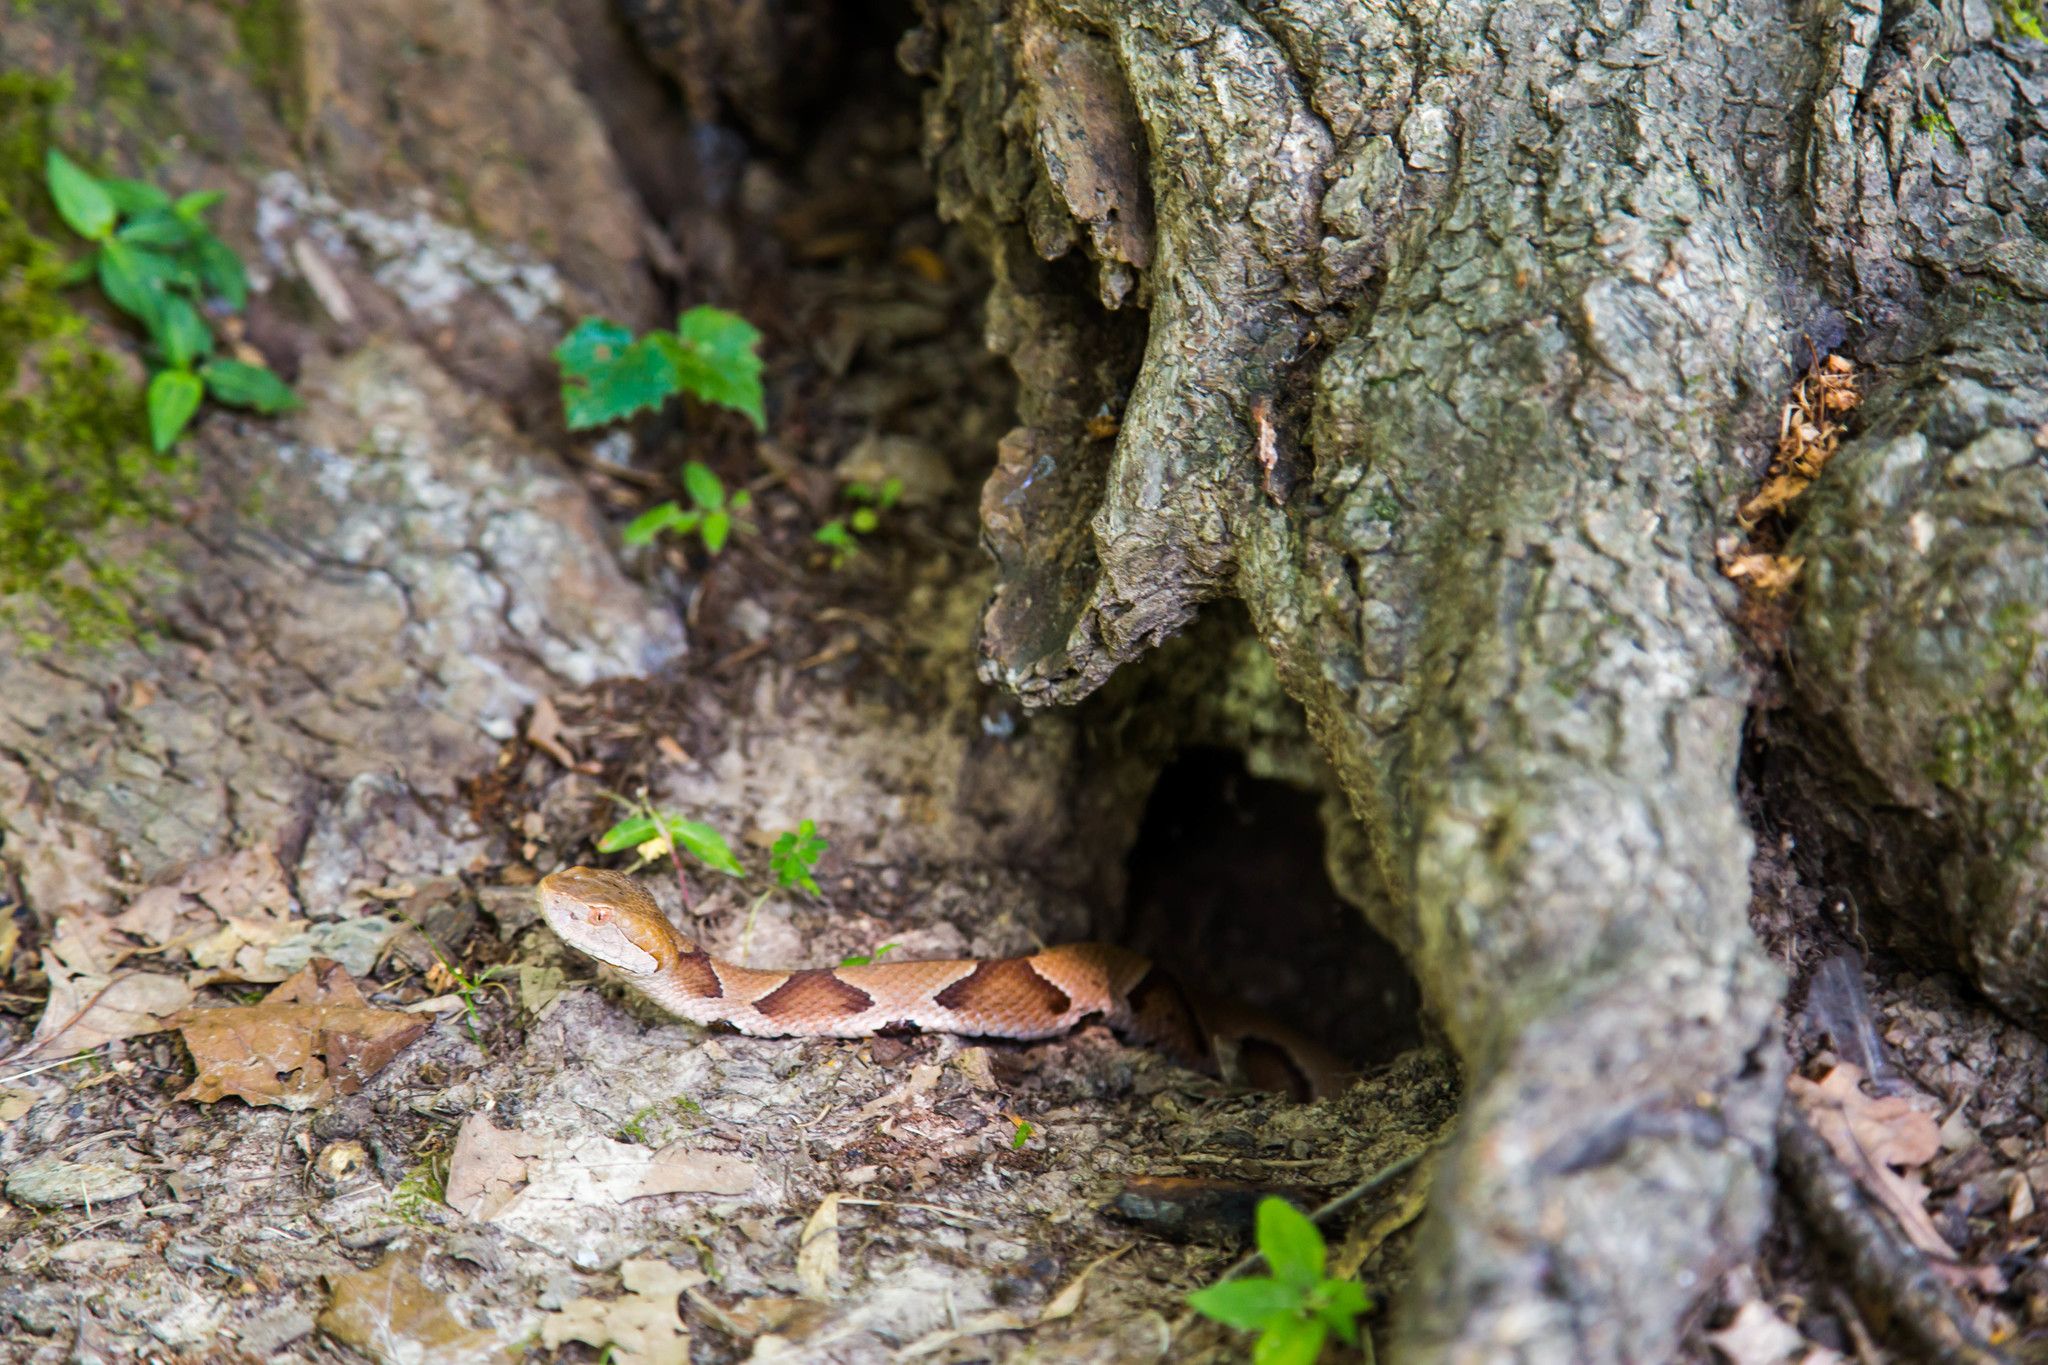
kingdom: Animalia
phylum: Chordata
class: Squamata
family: Viperidae
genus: Agkistrodon
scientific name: Agkistrodon contortrix
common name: Northern copperhead
